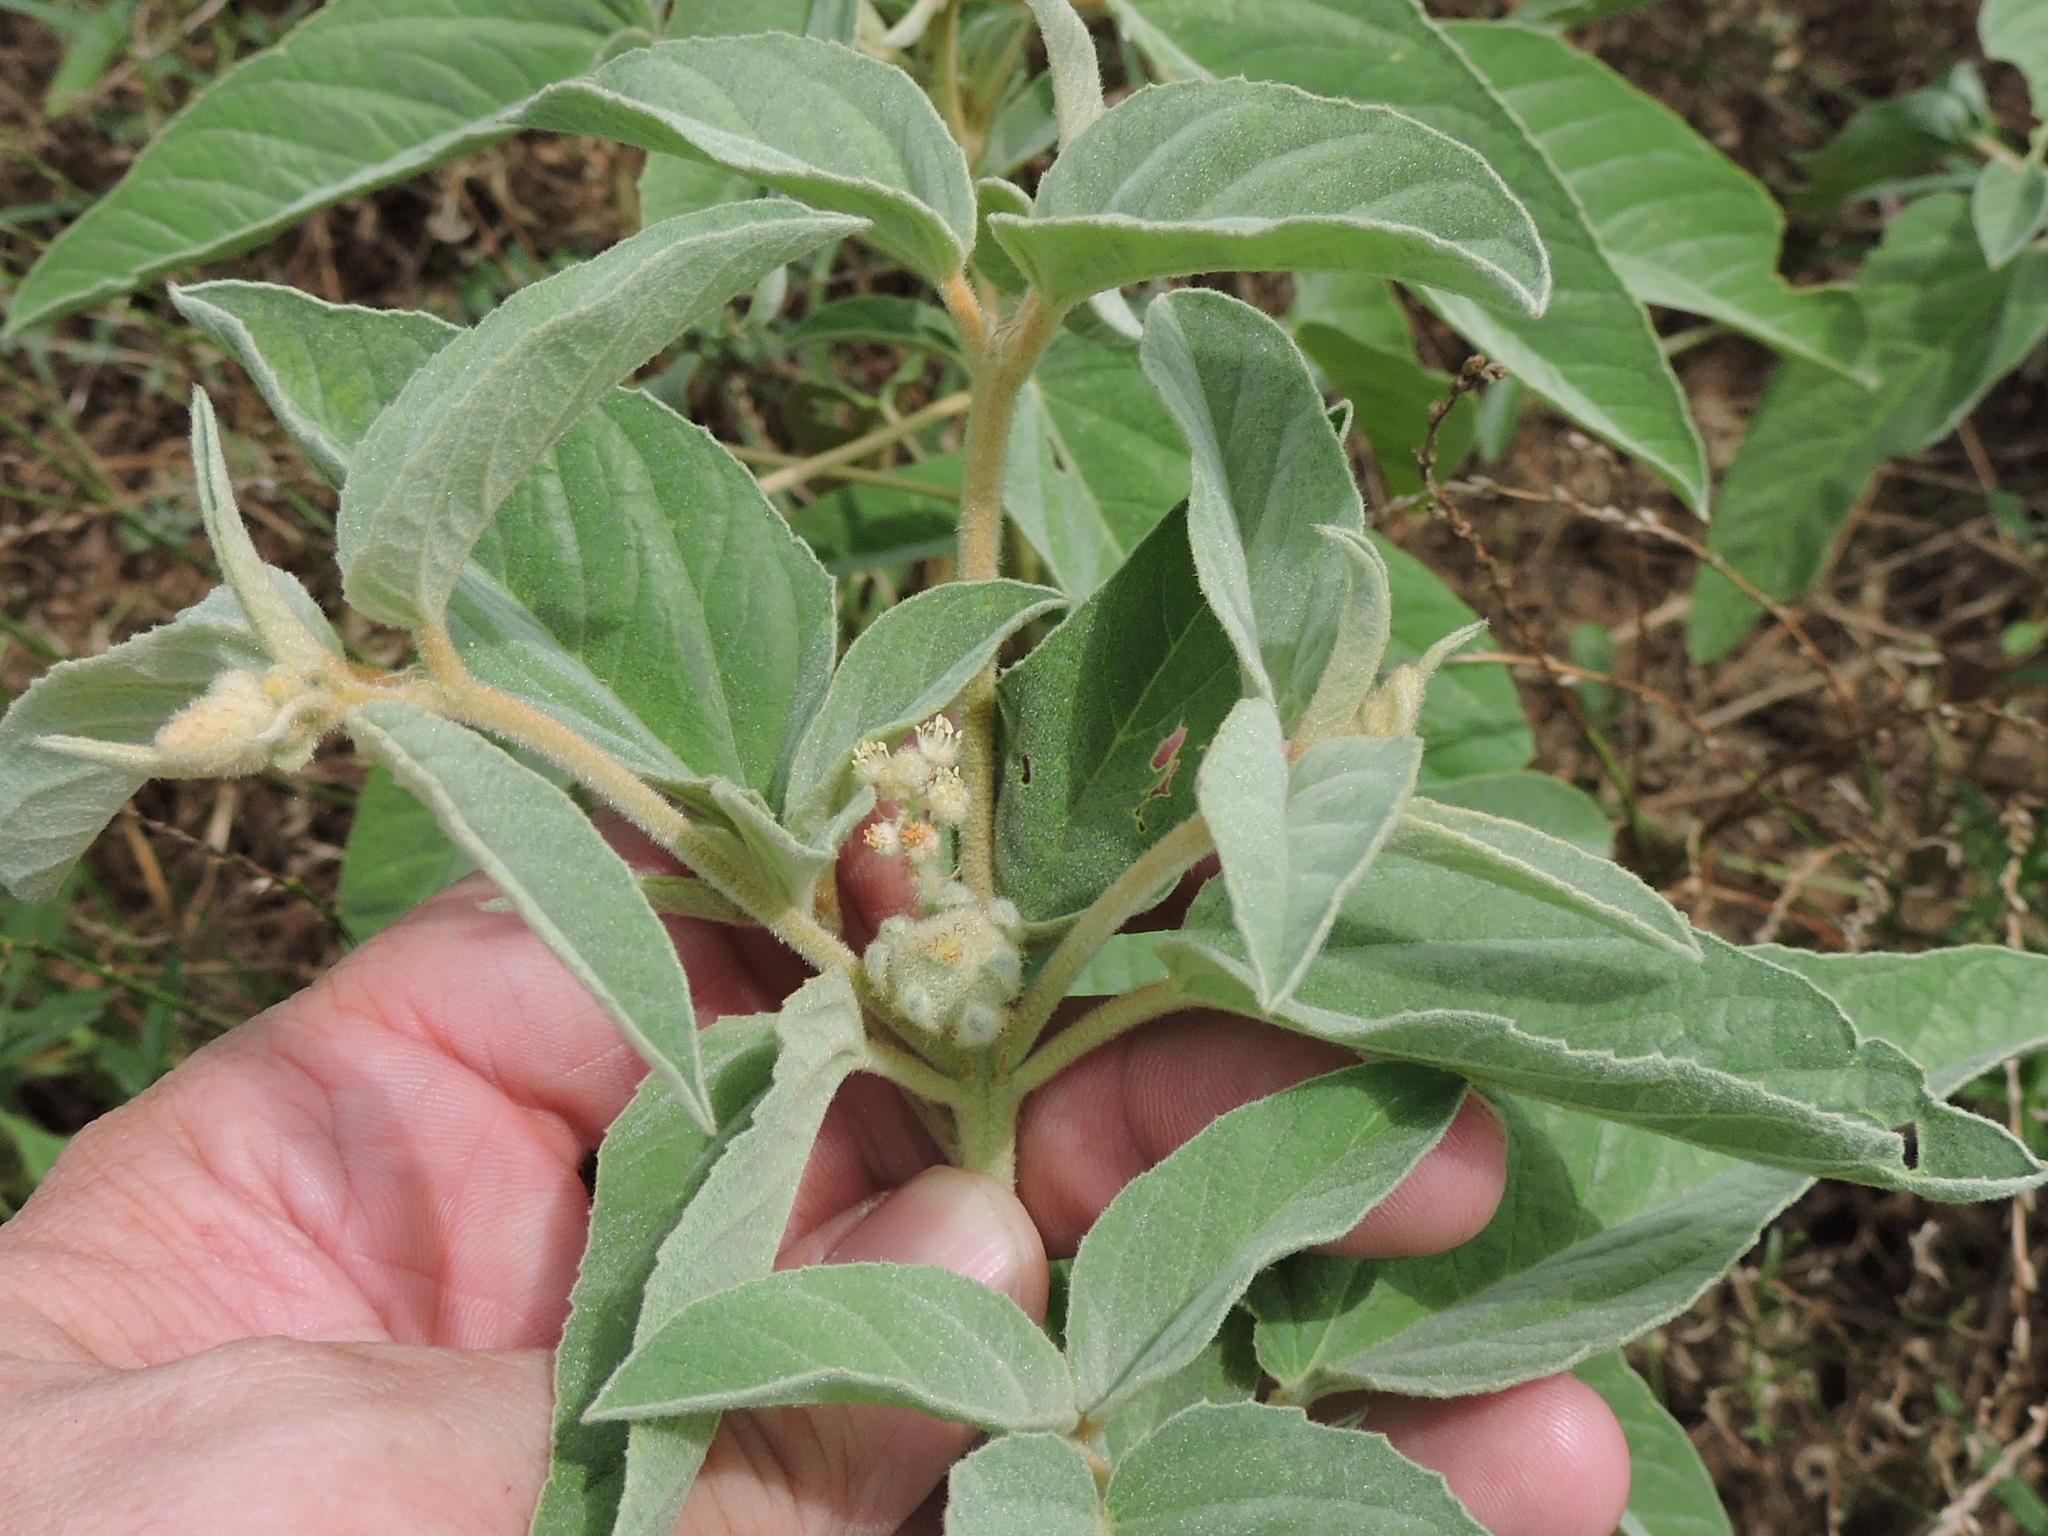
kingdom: Plantae
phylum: Tracheophyta
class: Magnoliopsida
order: Malpighiales
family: Euphorbiaceae
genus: Croton
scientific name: Croton lindheimeri
